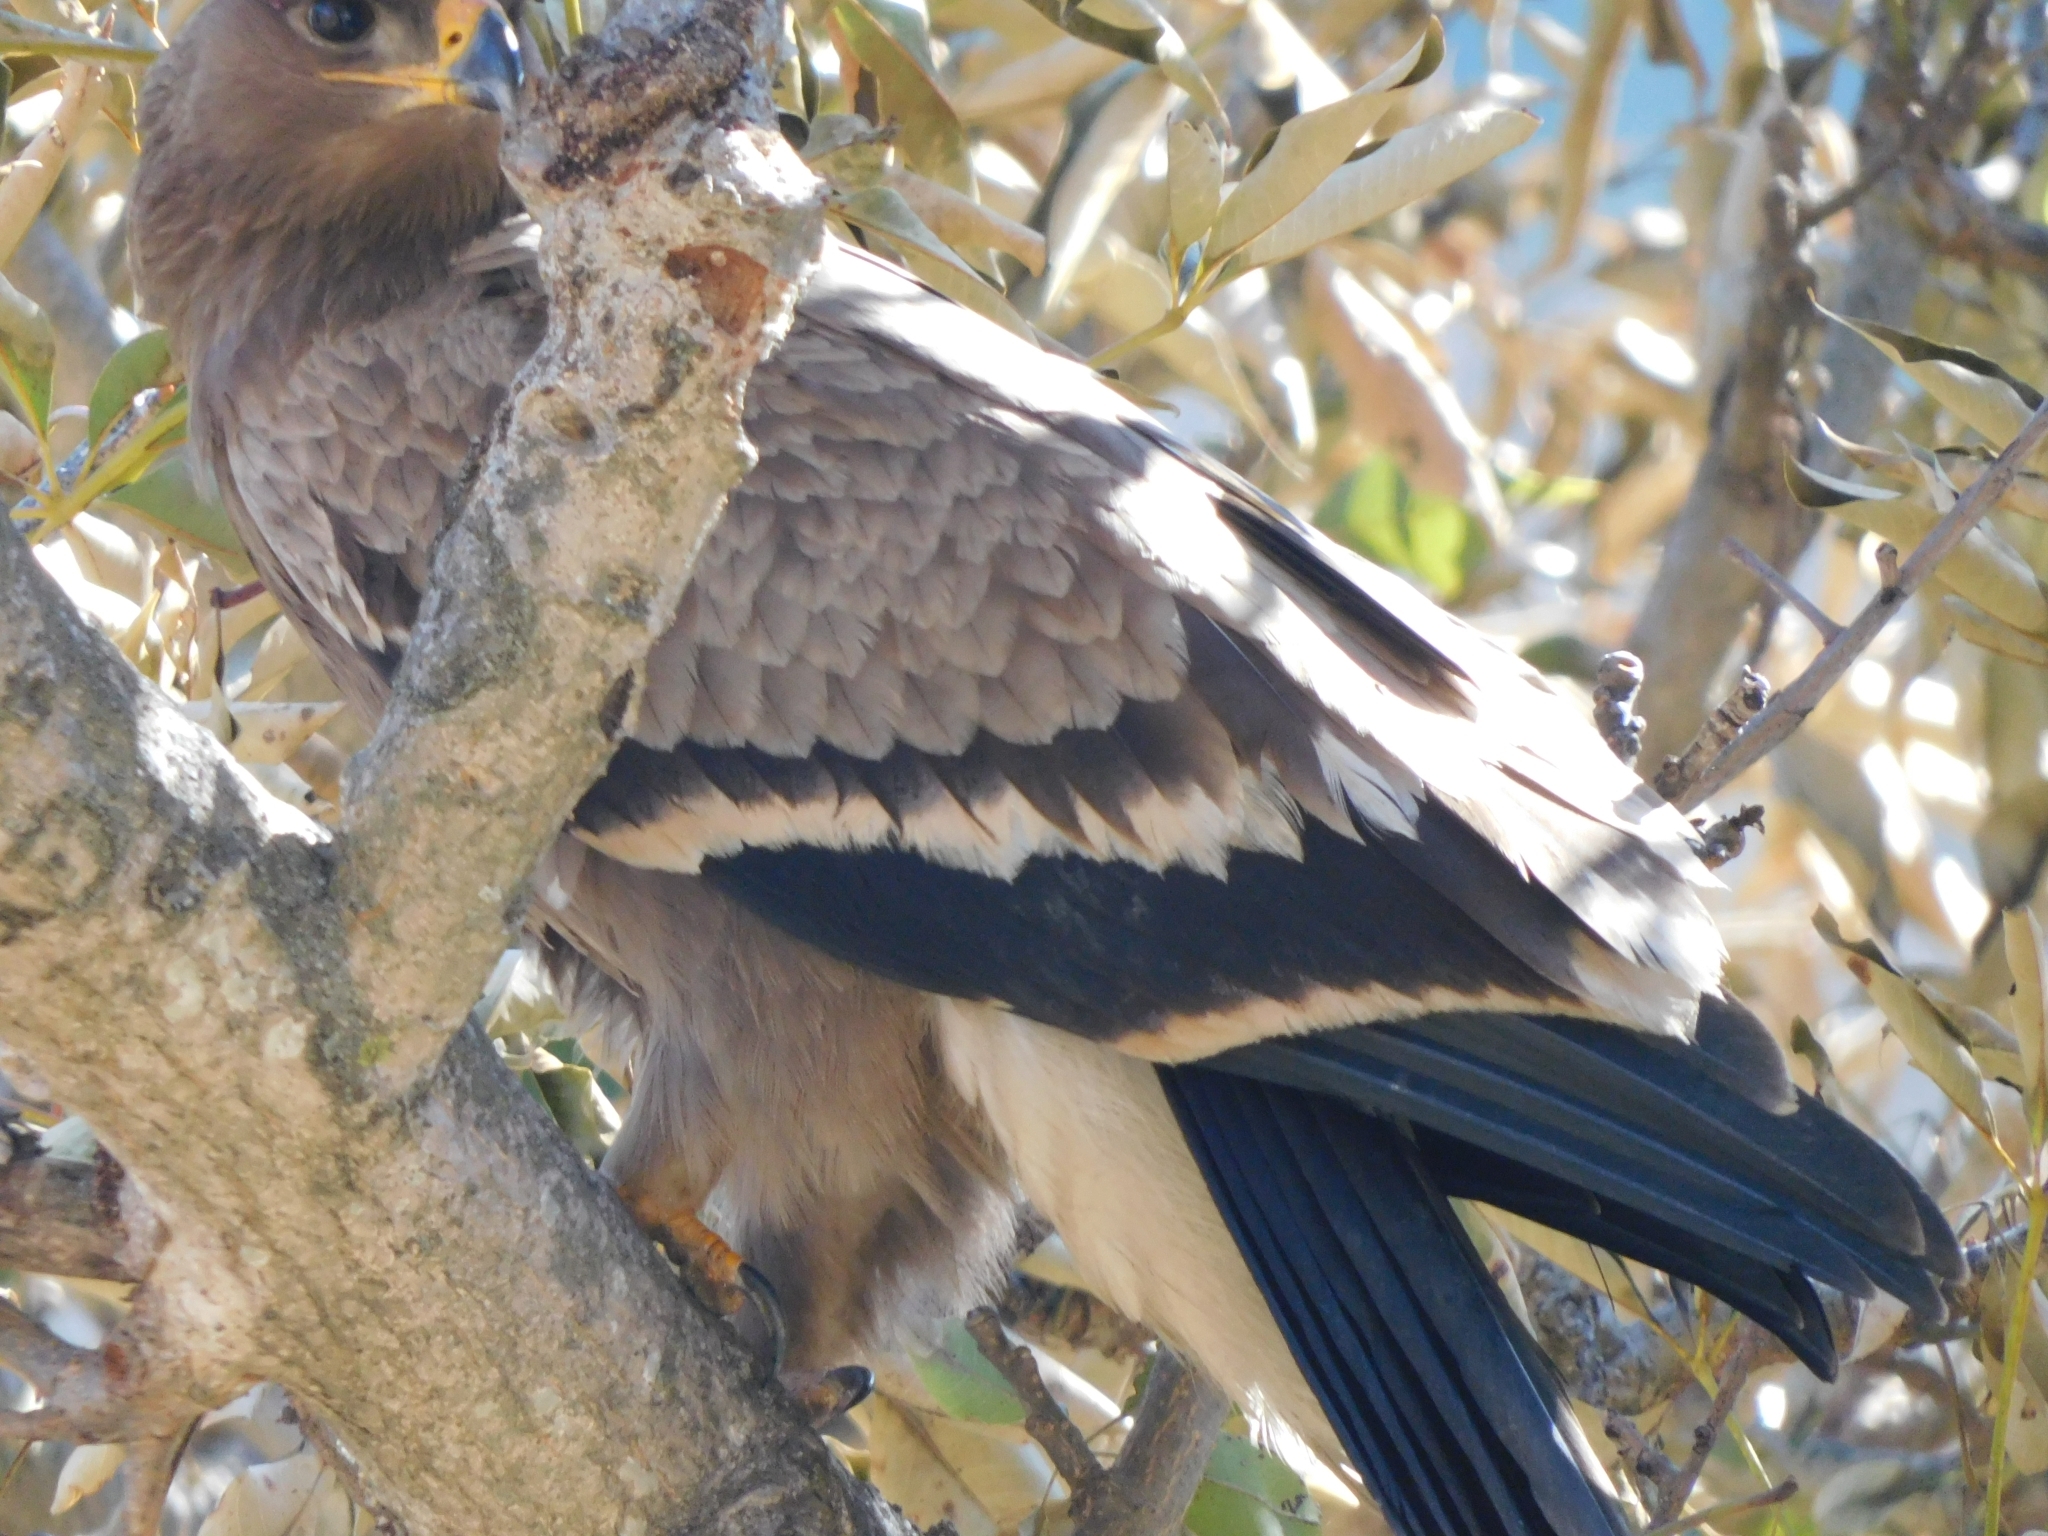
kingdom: Animalia
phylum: Chordata
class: Aves
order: Accipitriformes
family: Accipitridae
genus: Aquila
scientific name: Aquila nipalensis
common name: Steppe eagle
